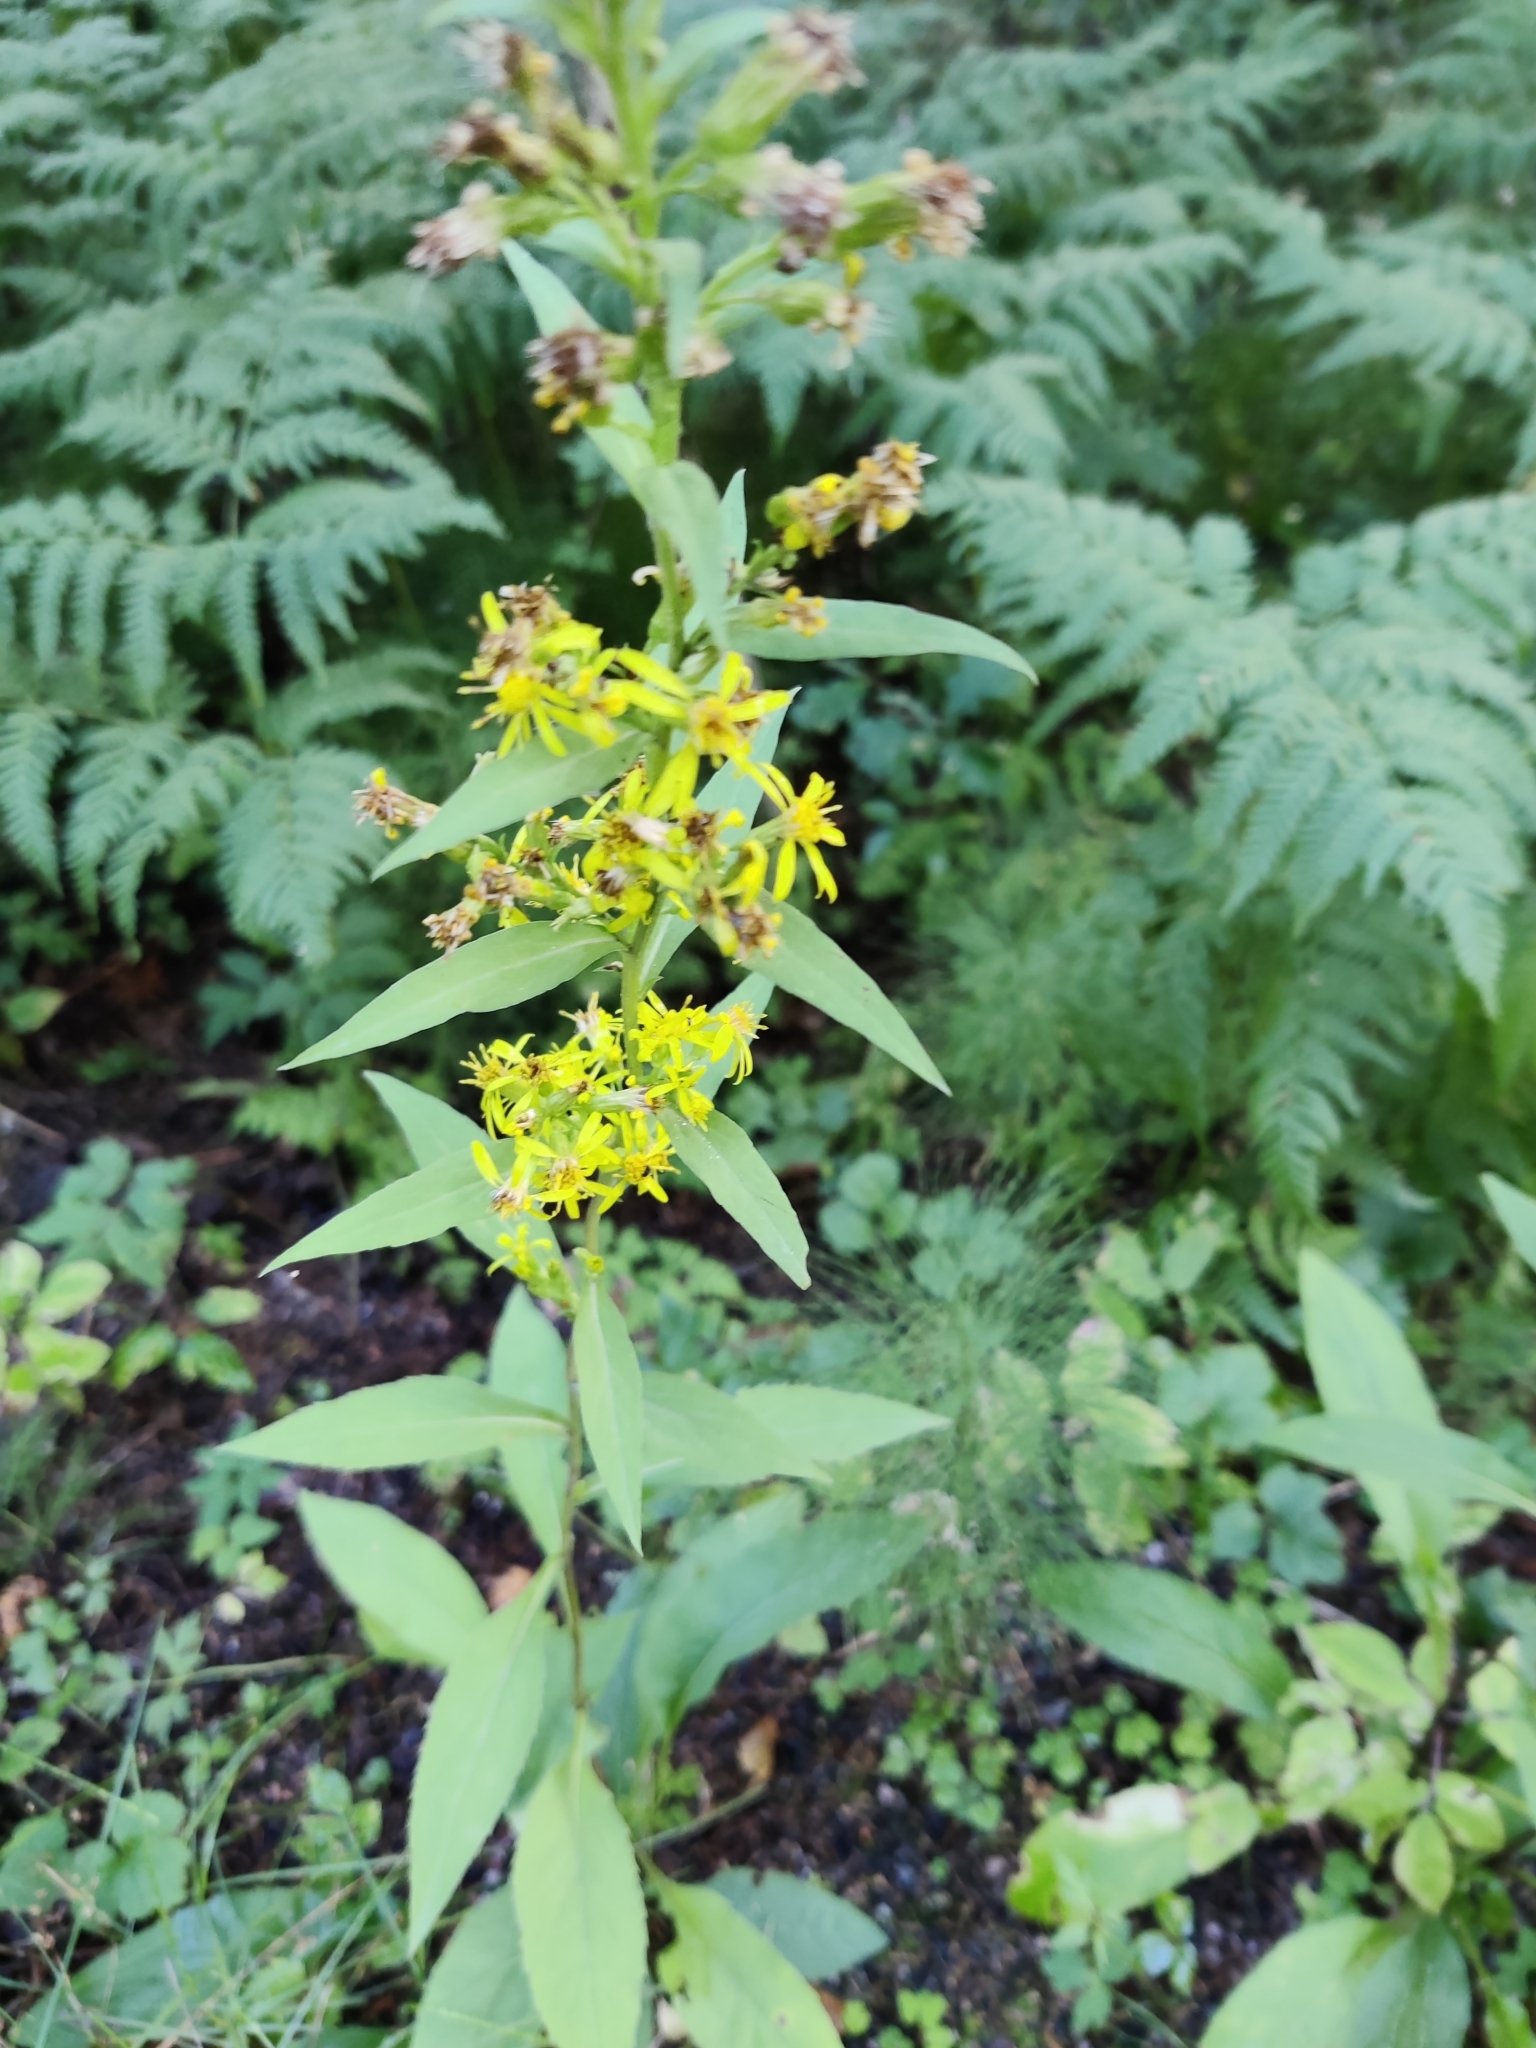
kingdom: Plantae
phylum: Tracheophyta
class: Magnoliopsida
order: Asterales
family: Asteraceae
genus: Solidago
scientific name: Solidago virgaurea
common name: Goldenrod
